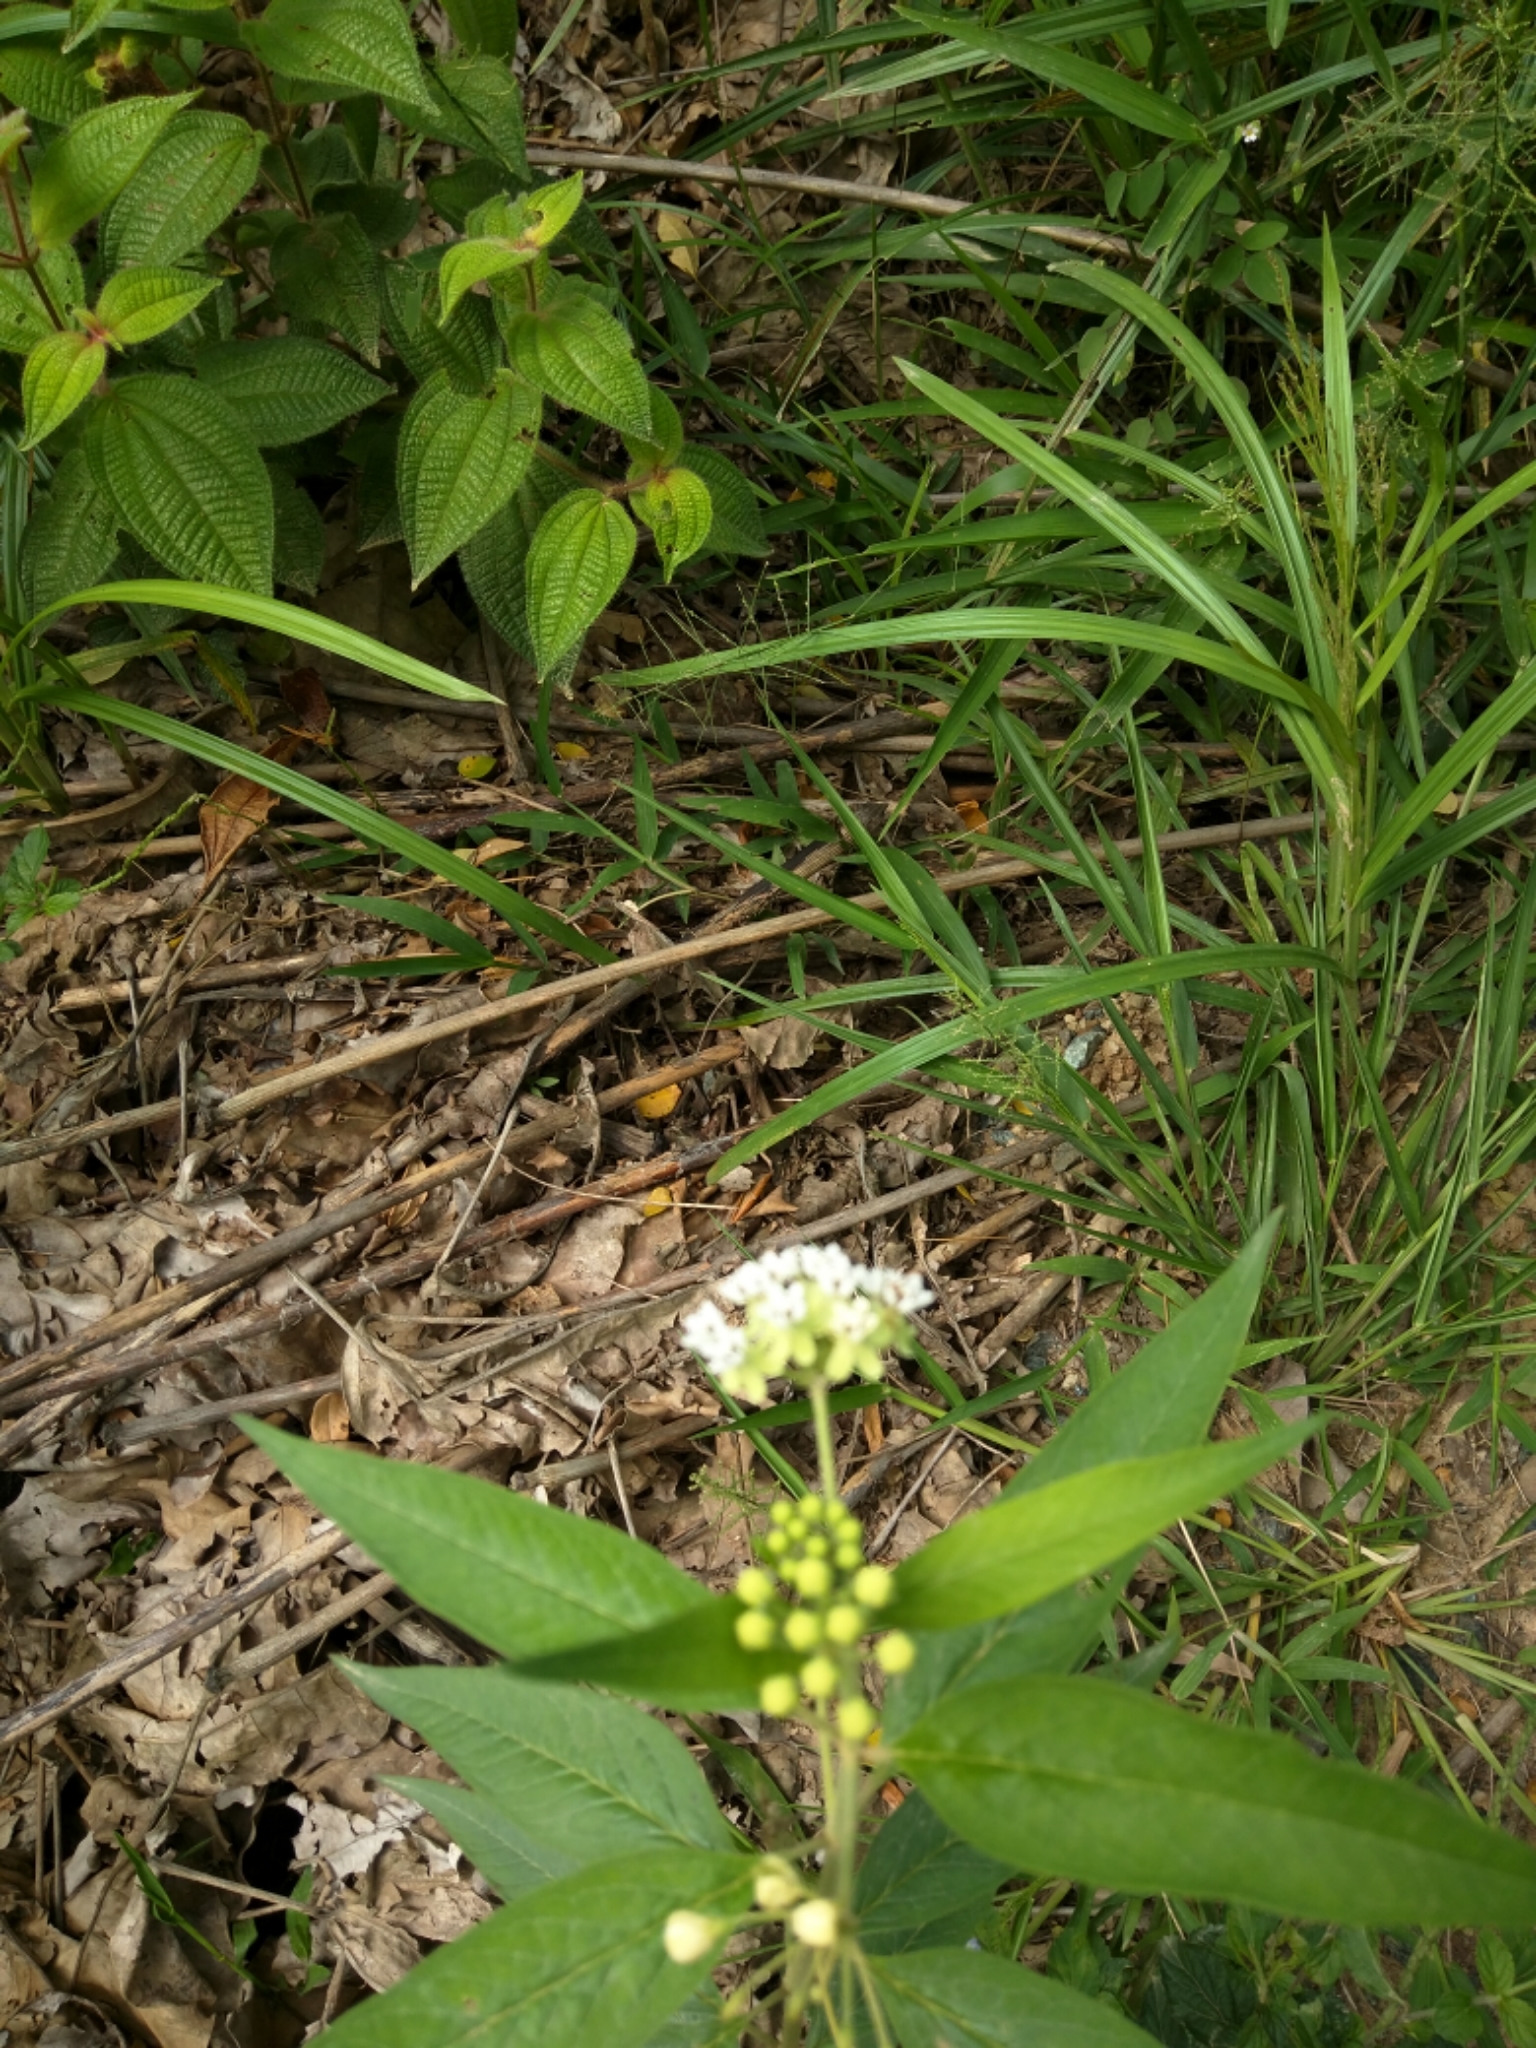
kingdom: Plantae
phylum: Tracheophyta
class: Magnoliopsida
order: Gentianales
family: Apocynaceae
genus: Asclepias
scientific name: Asclepias nivea
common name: Ipecacuanha
